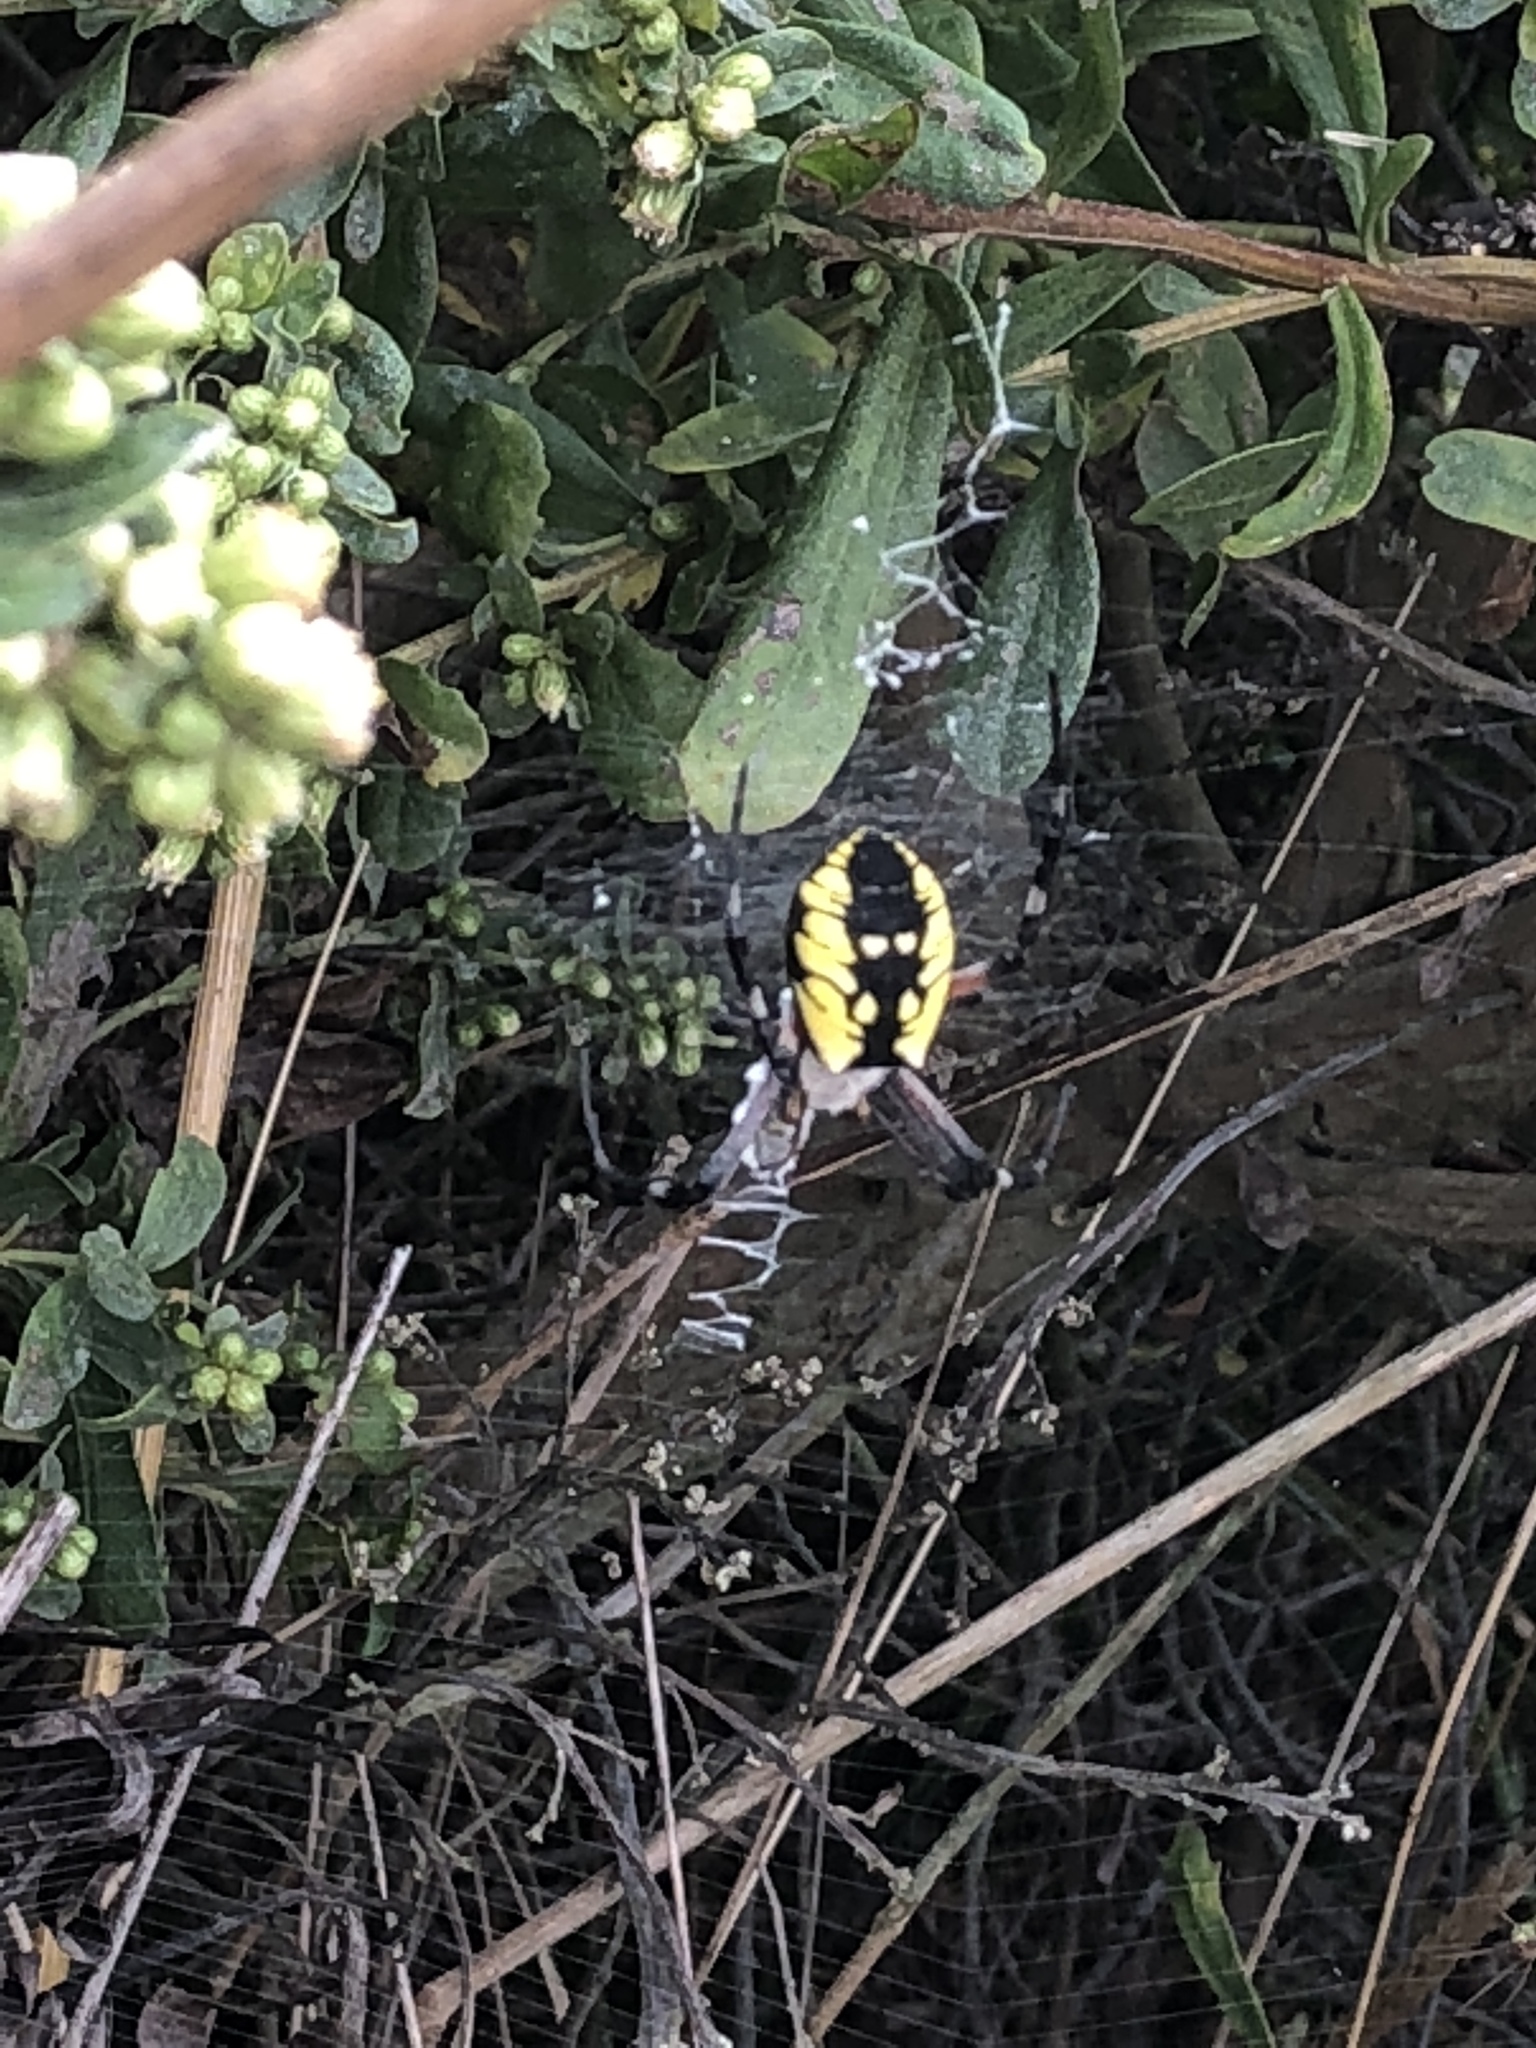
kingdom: Animalia
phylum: Arthropoda
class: Arachnida
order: Araneae
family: Araneidae
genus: Argiope
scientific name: Argiope aurantia
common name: Orb weavers
